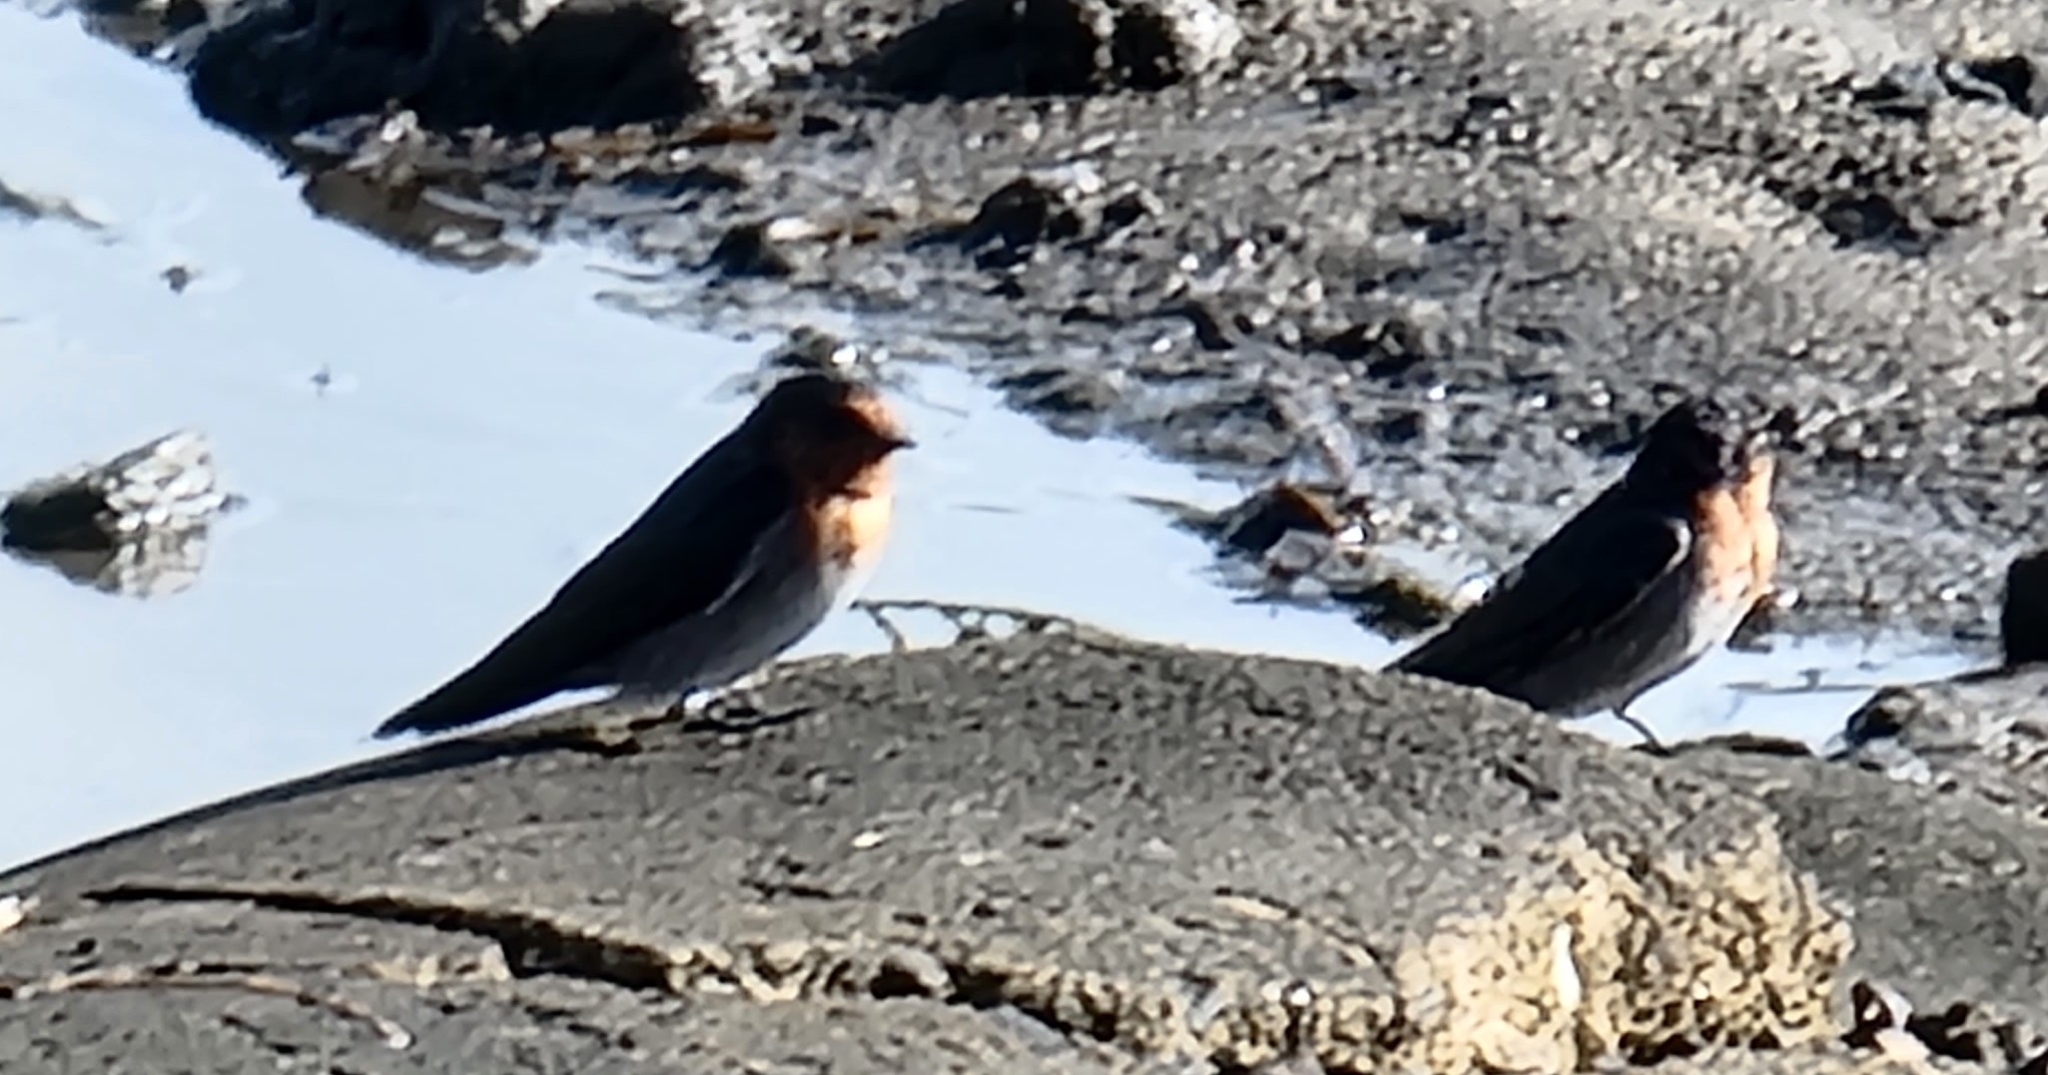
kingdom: Animalia
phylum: Chordata
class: Aves
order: Passeriformes
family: Hirundinidae
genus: Hirundo
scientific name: Hirundo neoxena
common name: Welcome swallow
